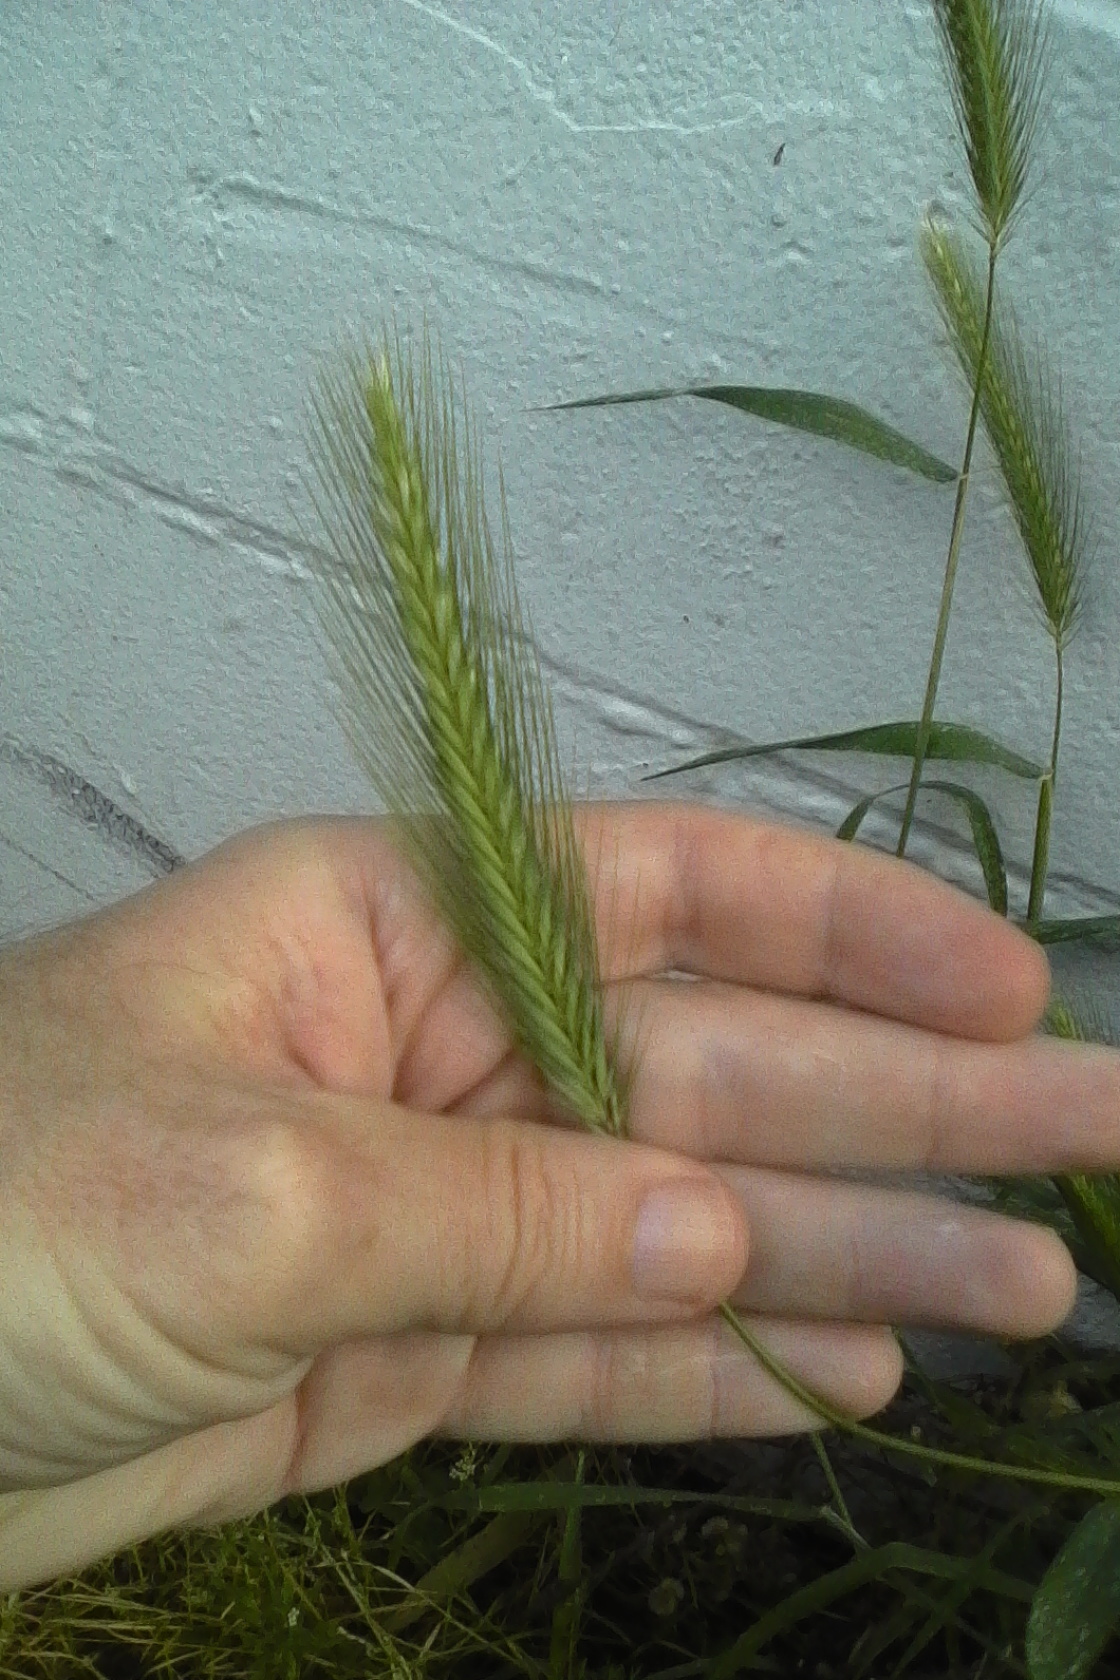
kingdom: Plantae
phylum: Tracheophyta
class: Liliopsida
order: Poales
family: Poaceae
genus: Hordeum
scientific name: Hordeum murinum
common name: Wall barley
